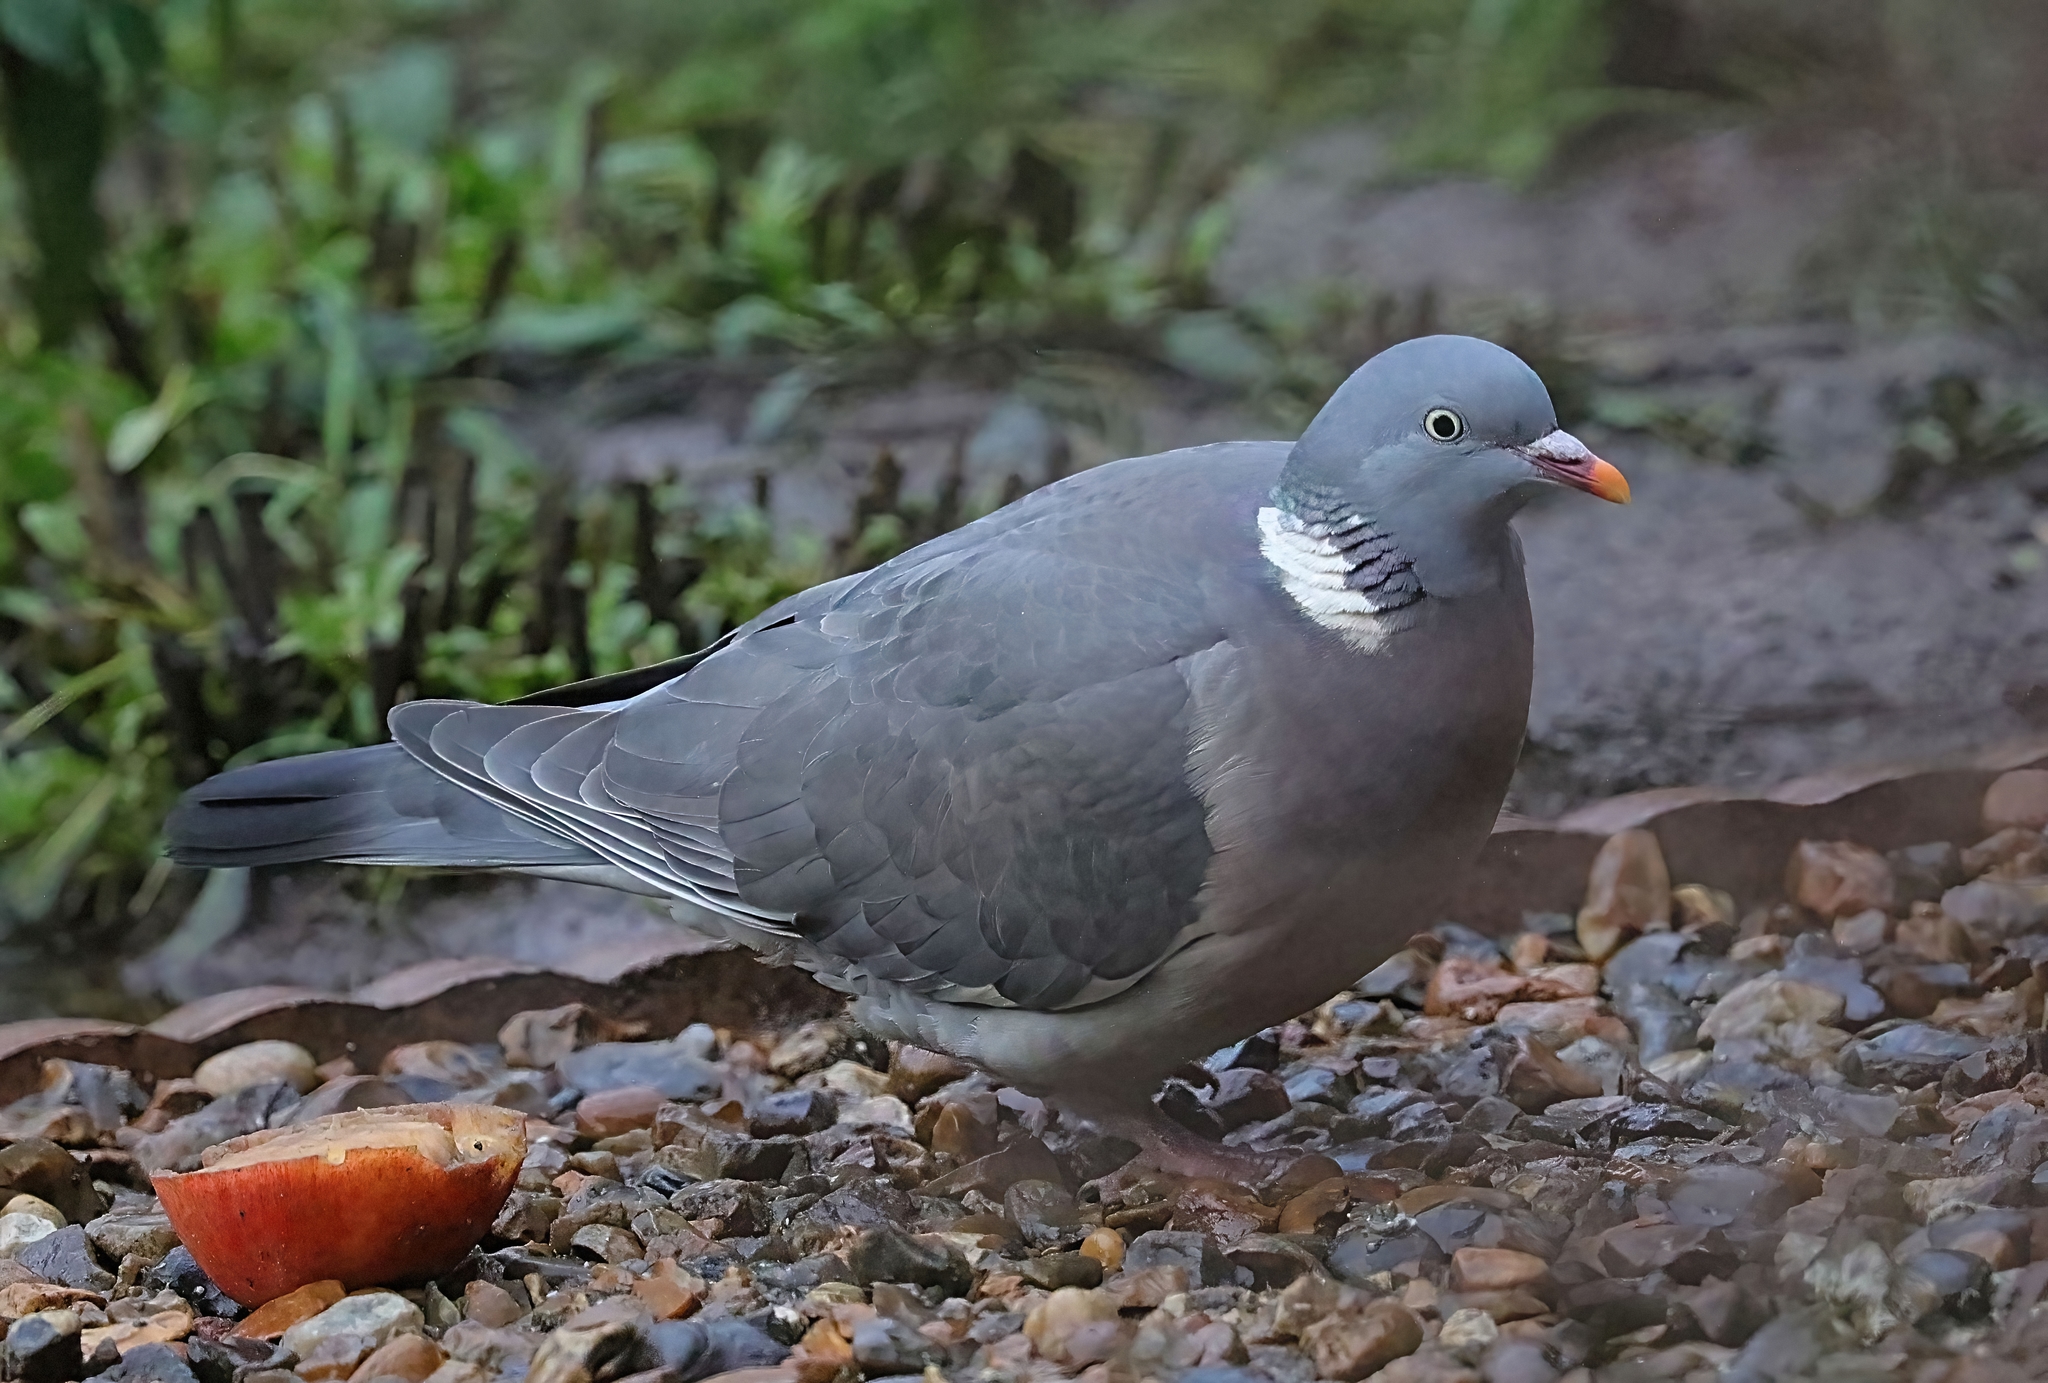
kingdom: Animalia
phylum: Chordata
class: Aves
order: Columbiformes
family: Columbidae
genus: Columba
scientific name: Columba palumbus
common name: Common wood pigeon
